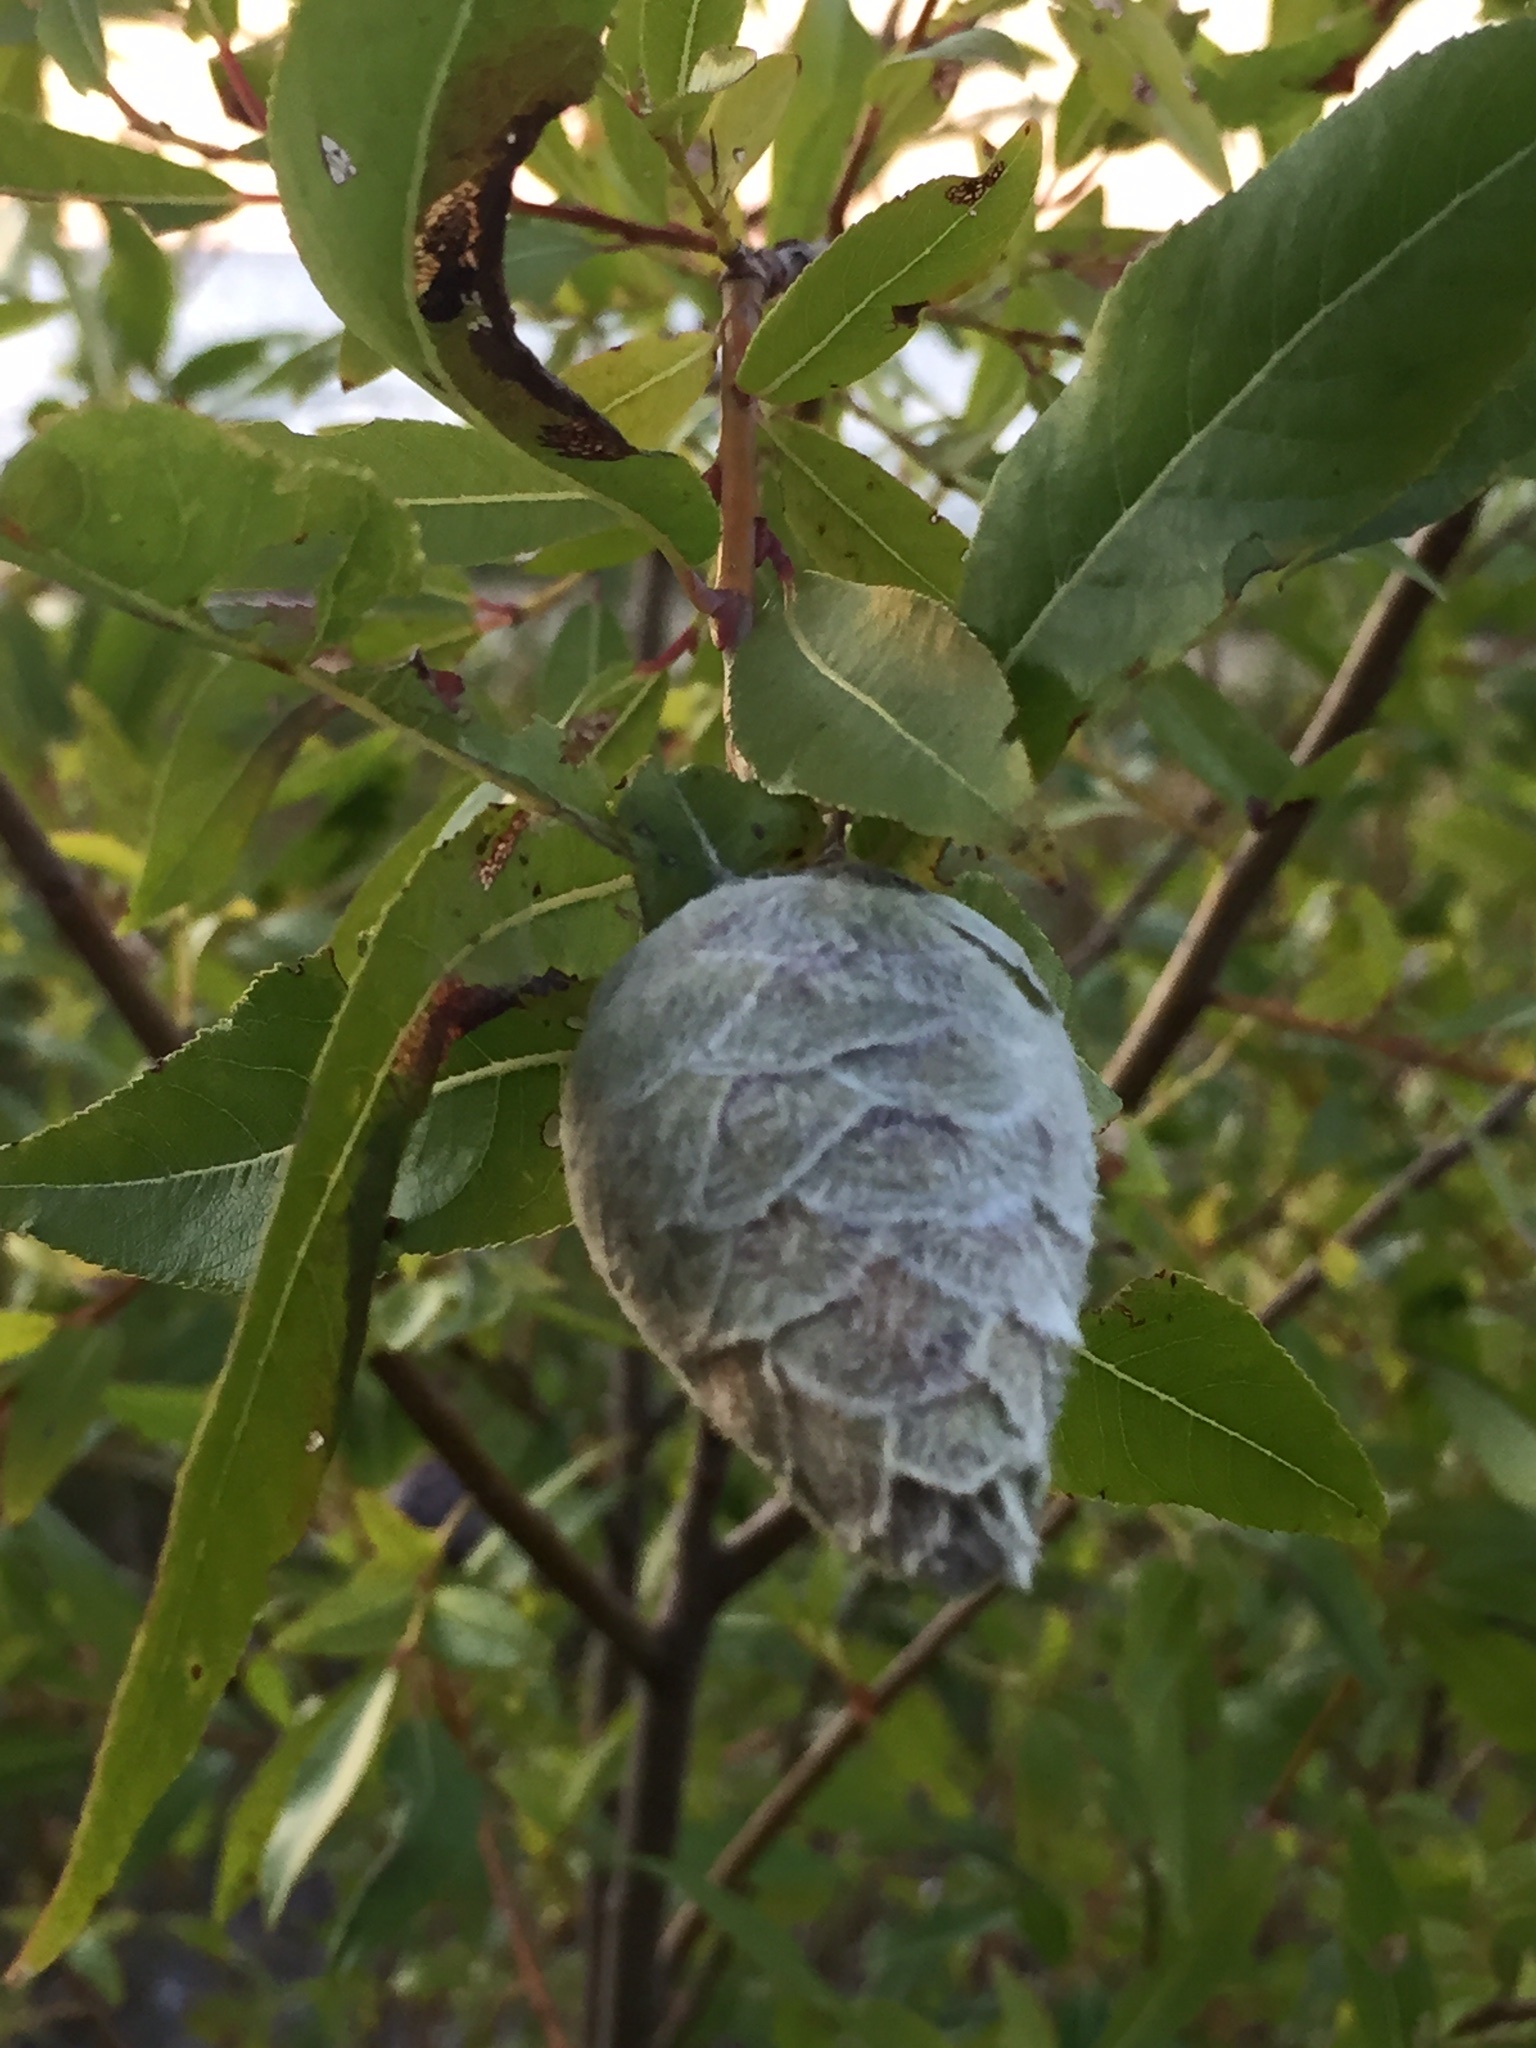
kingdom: Animalia
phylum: Arthropoda
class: Insecta
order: Diptera
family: Cecidomyiidae
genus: Rabdophaga
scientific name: Rabdophaga strobiloides
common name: Willow pinecone gall midge
